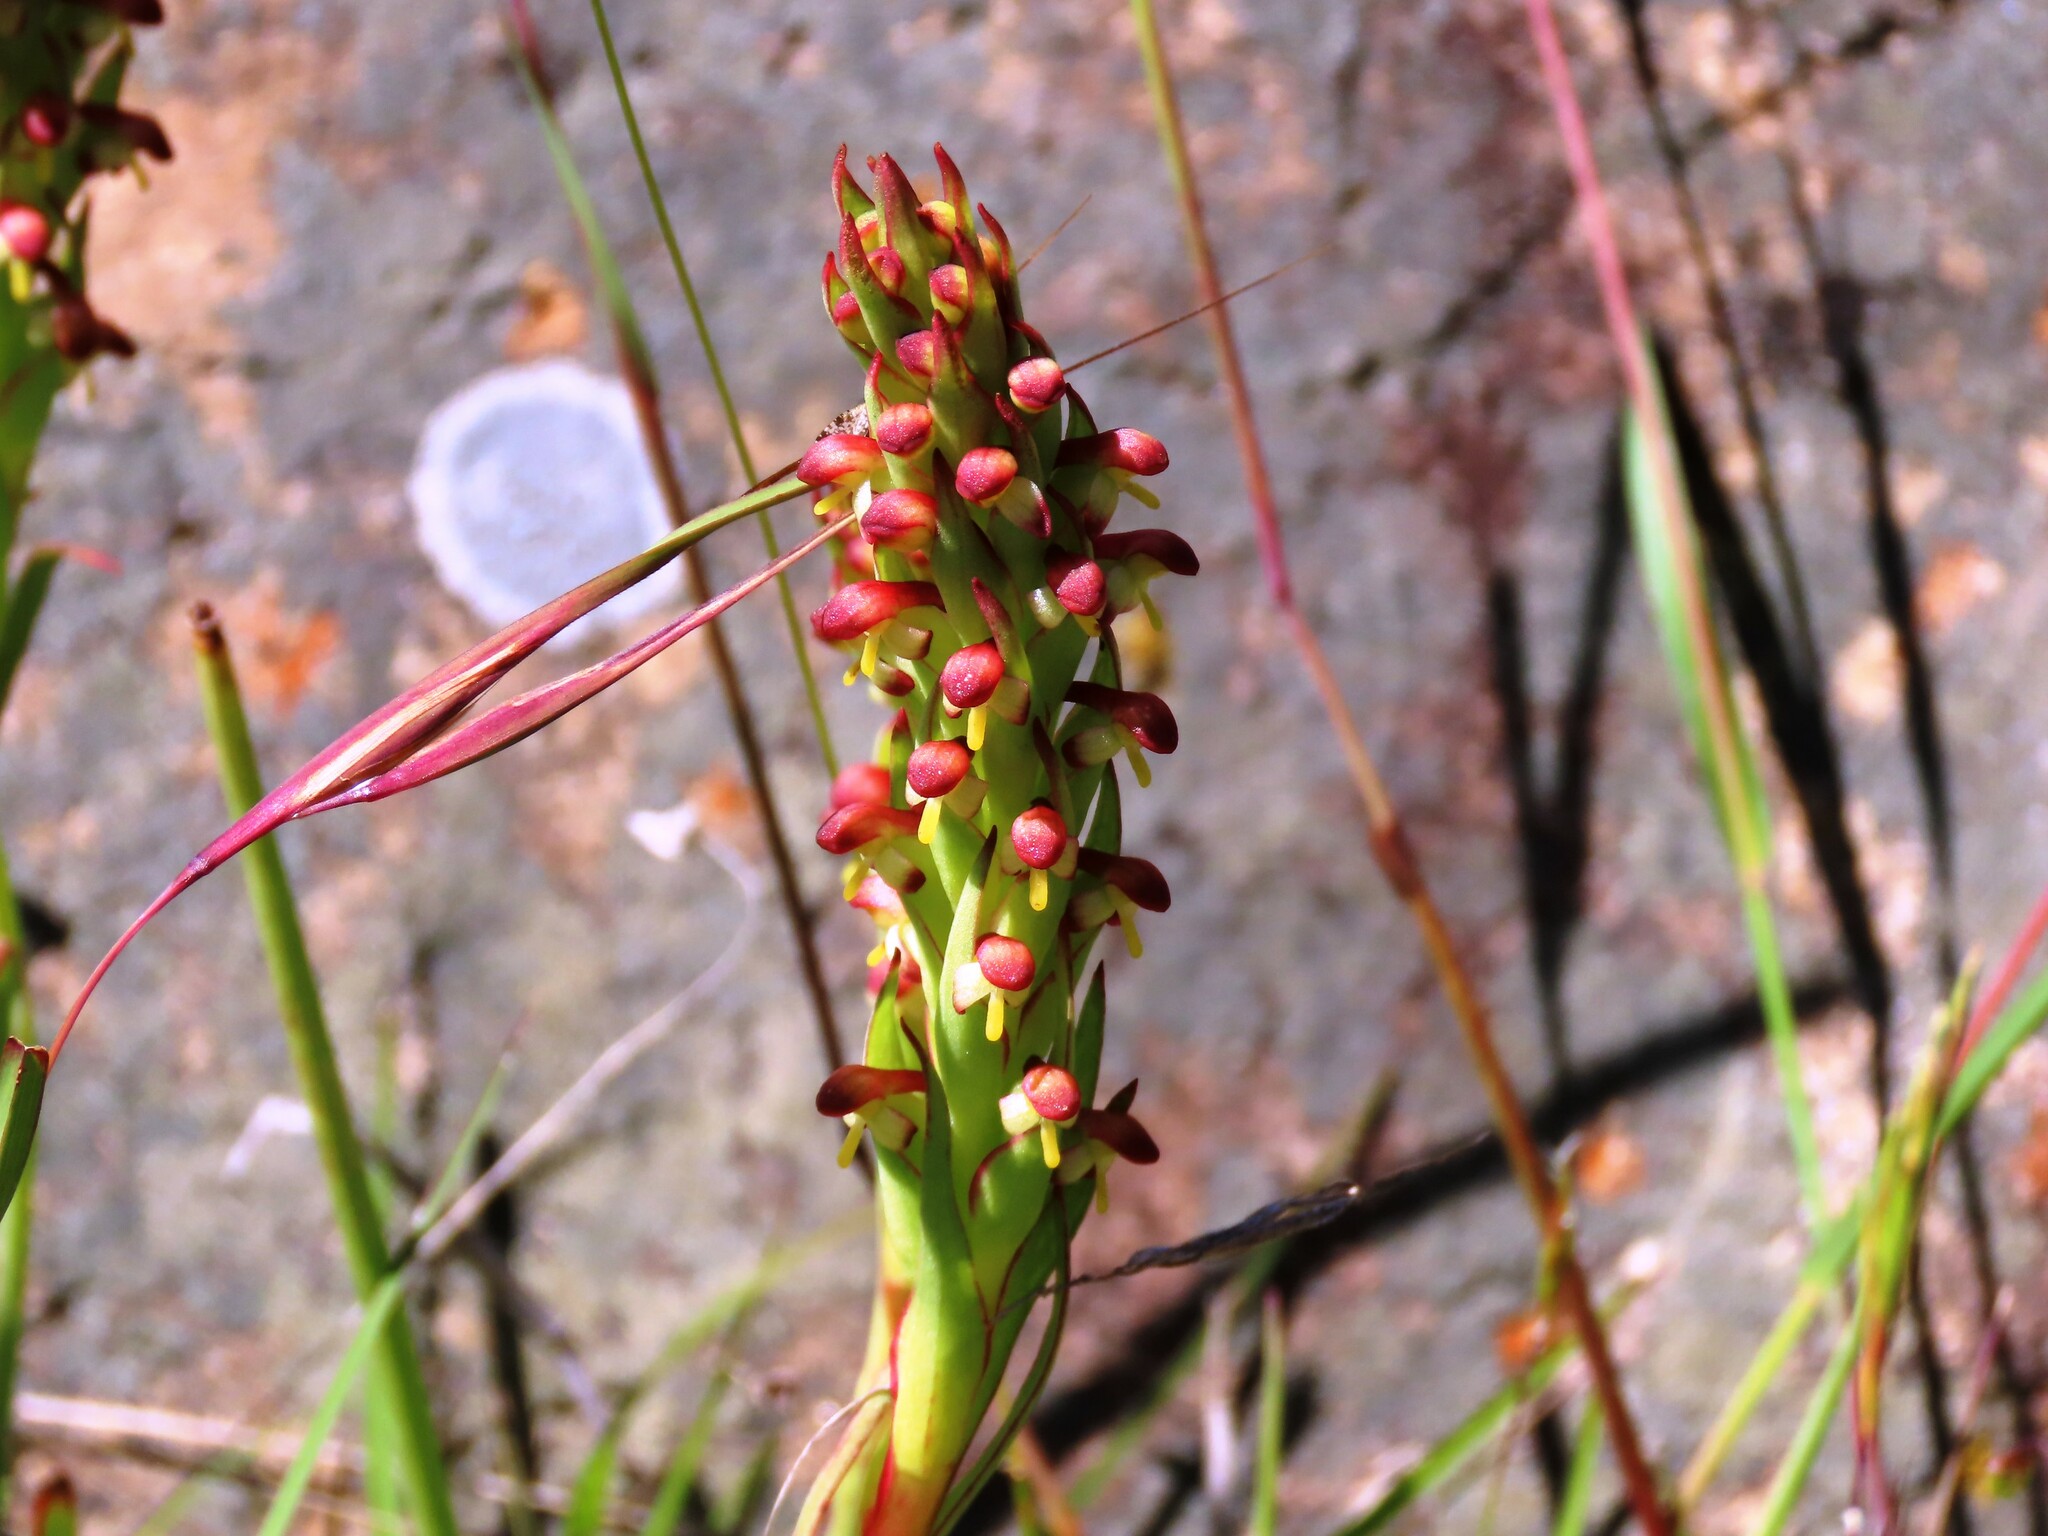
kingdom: Plantae
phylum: Tracheophyta
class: Liliopsida
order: Asparagales
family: Orchidaceae
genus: Disa
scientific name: Disa bracteata
